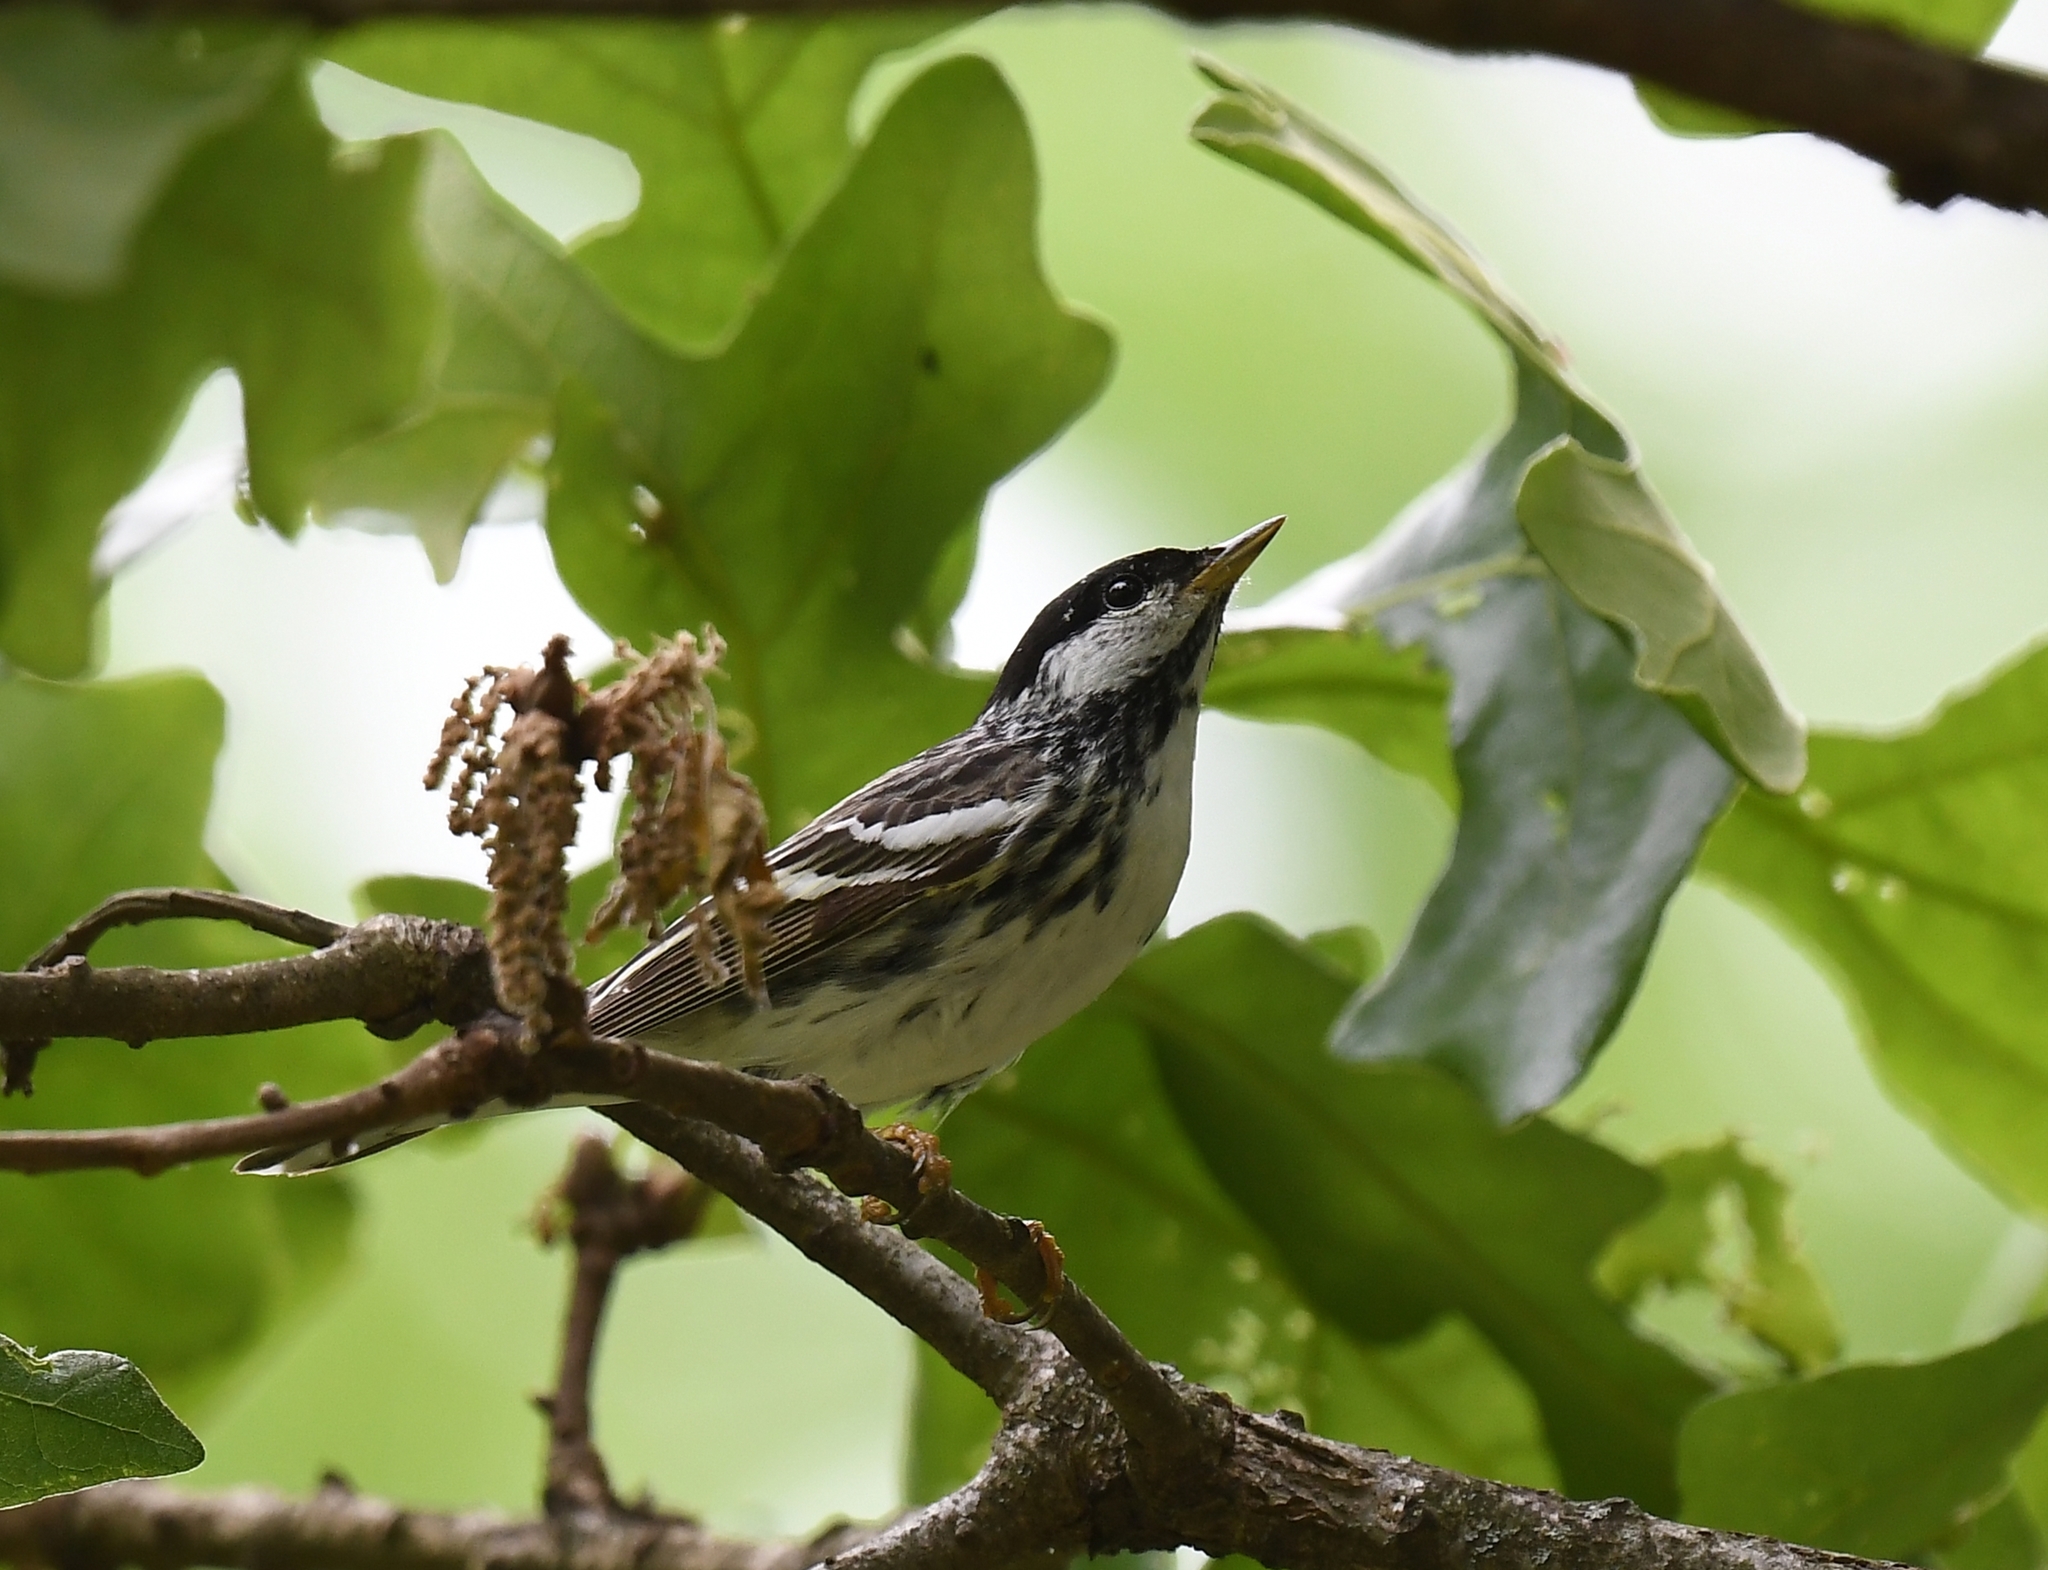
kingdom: Animalia
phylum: Chordata
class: Aves
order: Passeriformes
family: Parulidae
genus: Setophaga
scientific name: Setophaga striata
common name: Blackpoll warbler
